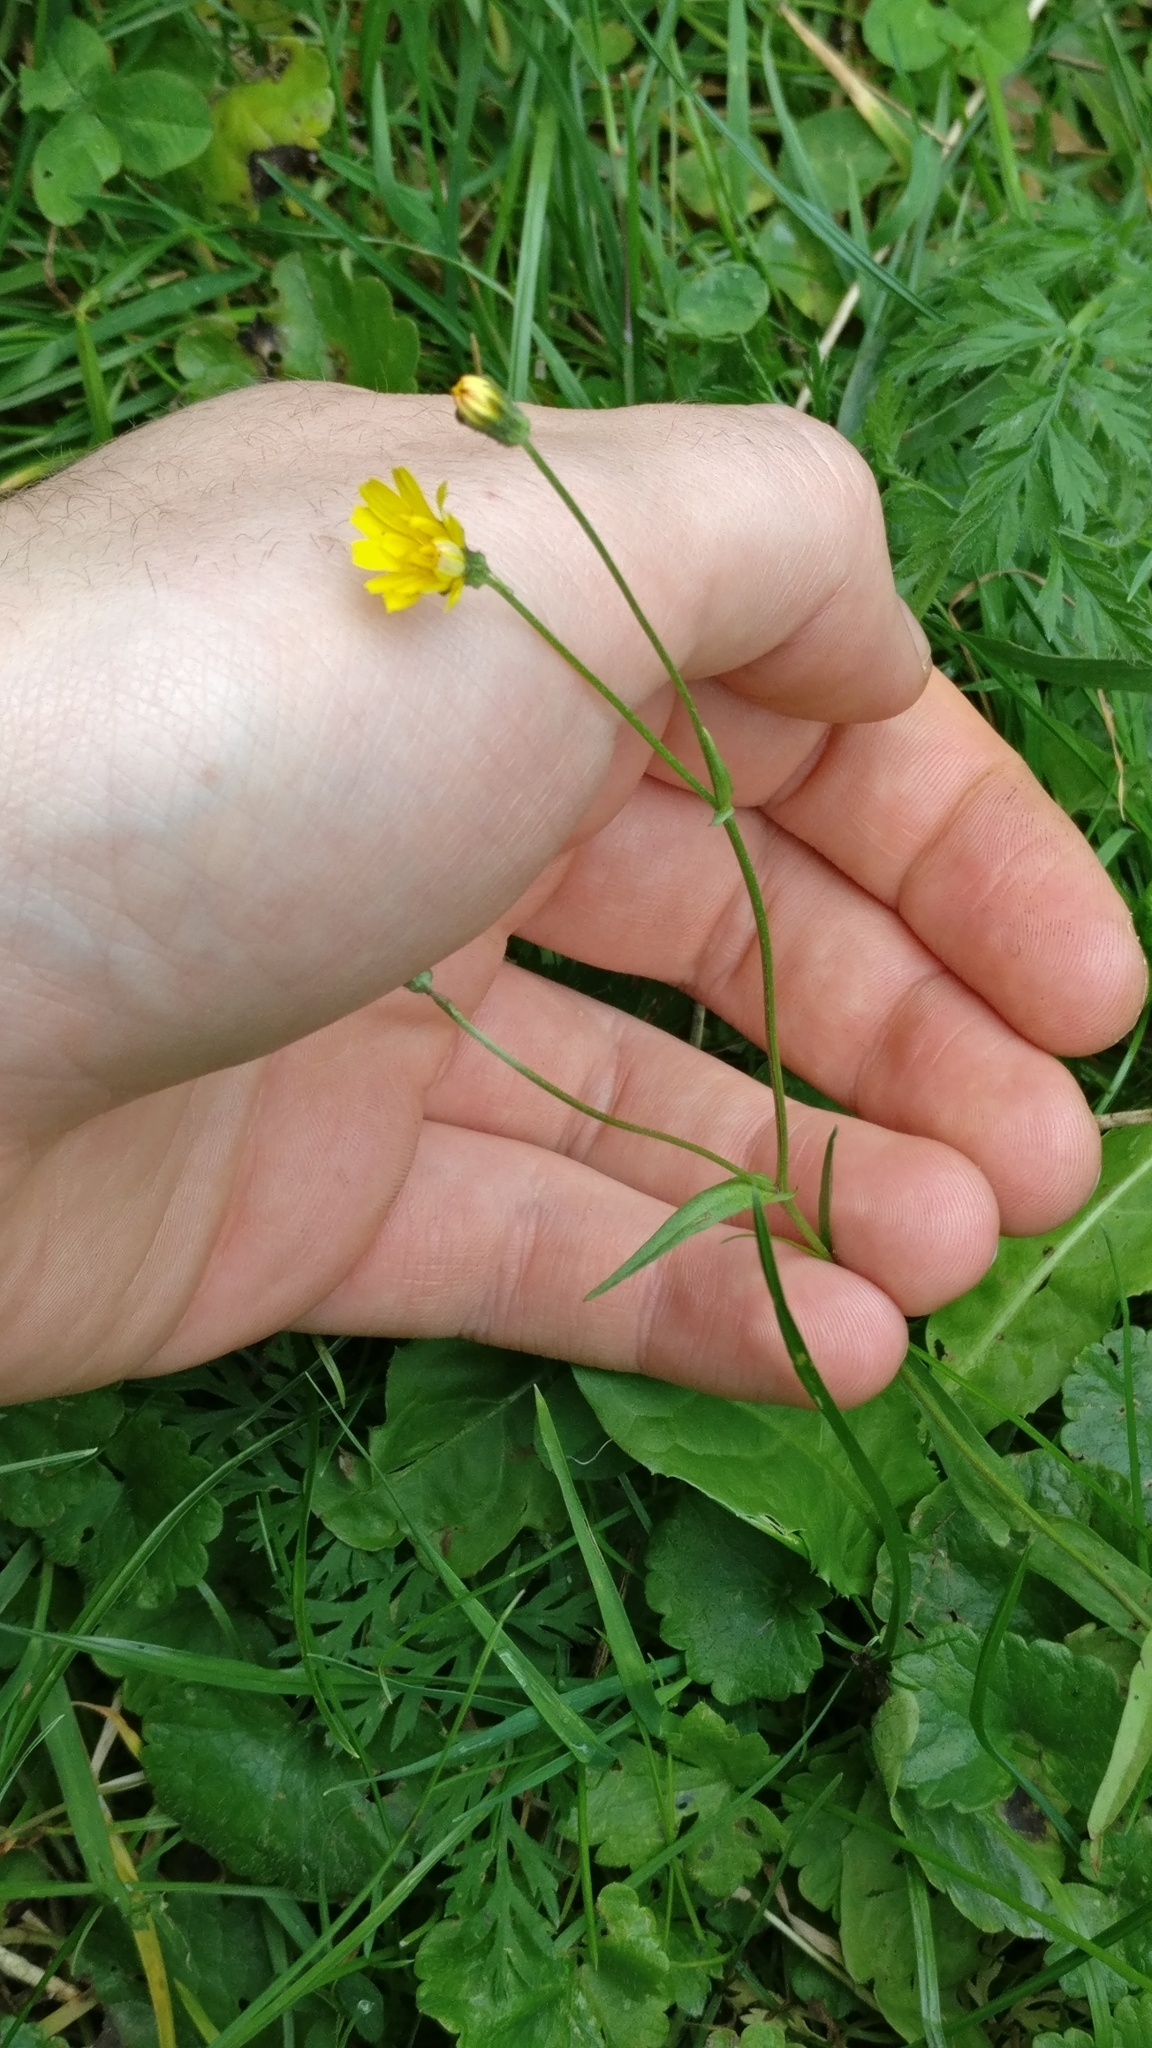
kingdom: Plantae
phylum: Tracheophyta
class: Magnoliopsida
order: Asterales
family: Asteraceae
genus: Lapsana
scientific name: Lapsana communis
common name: Nipplewort
